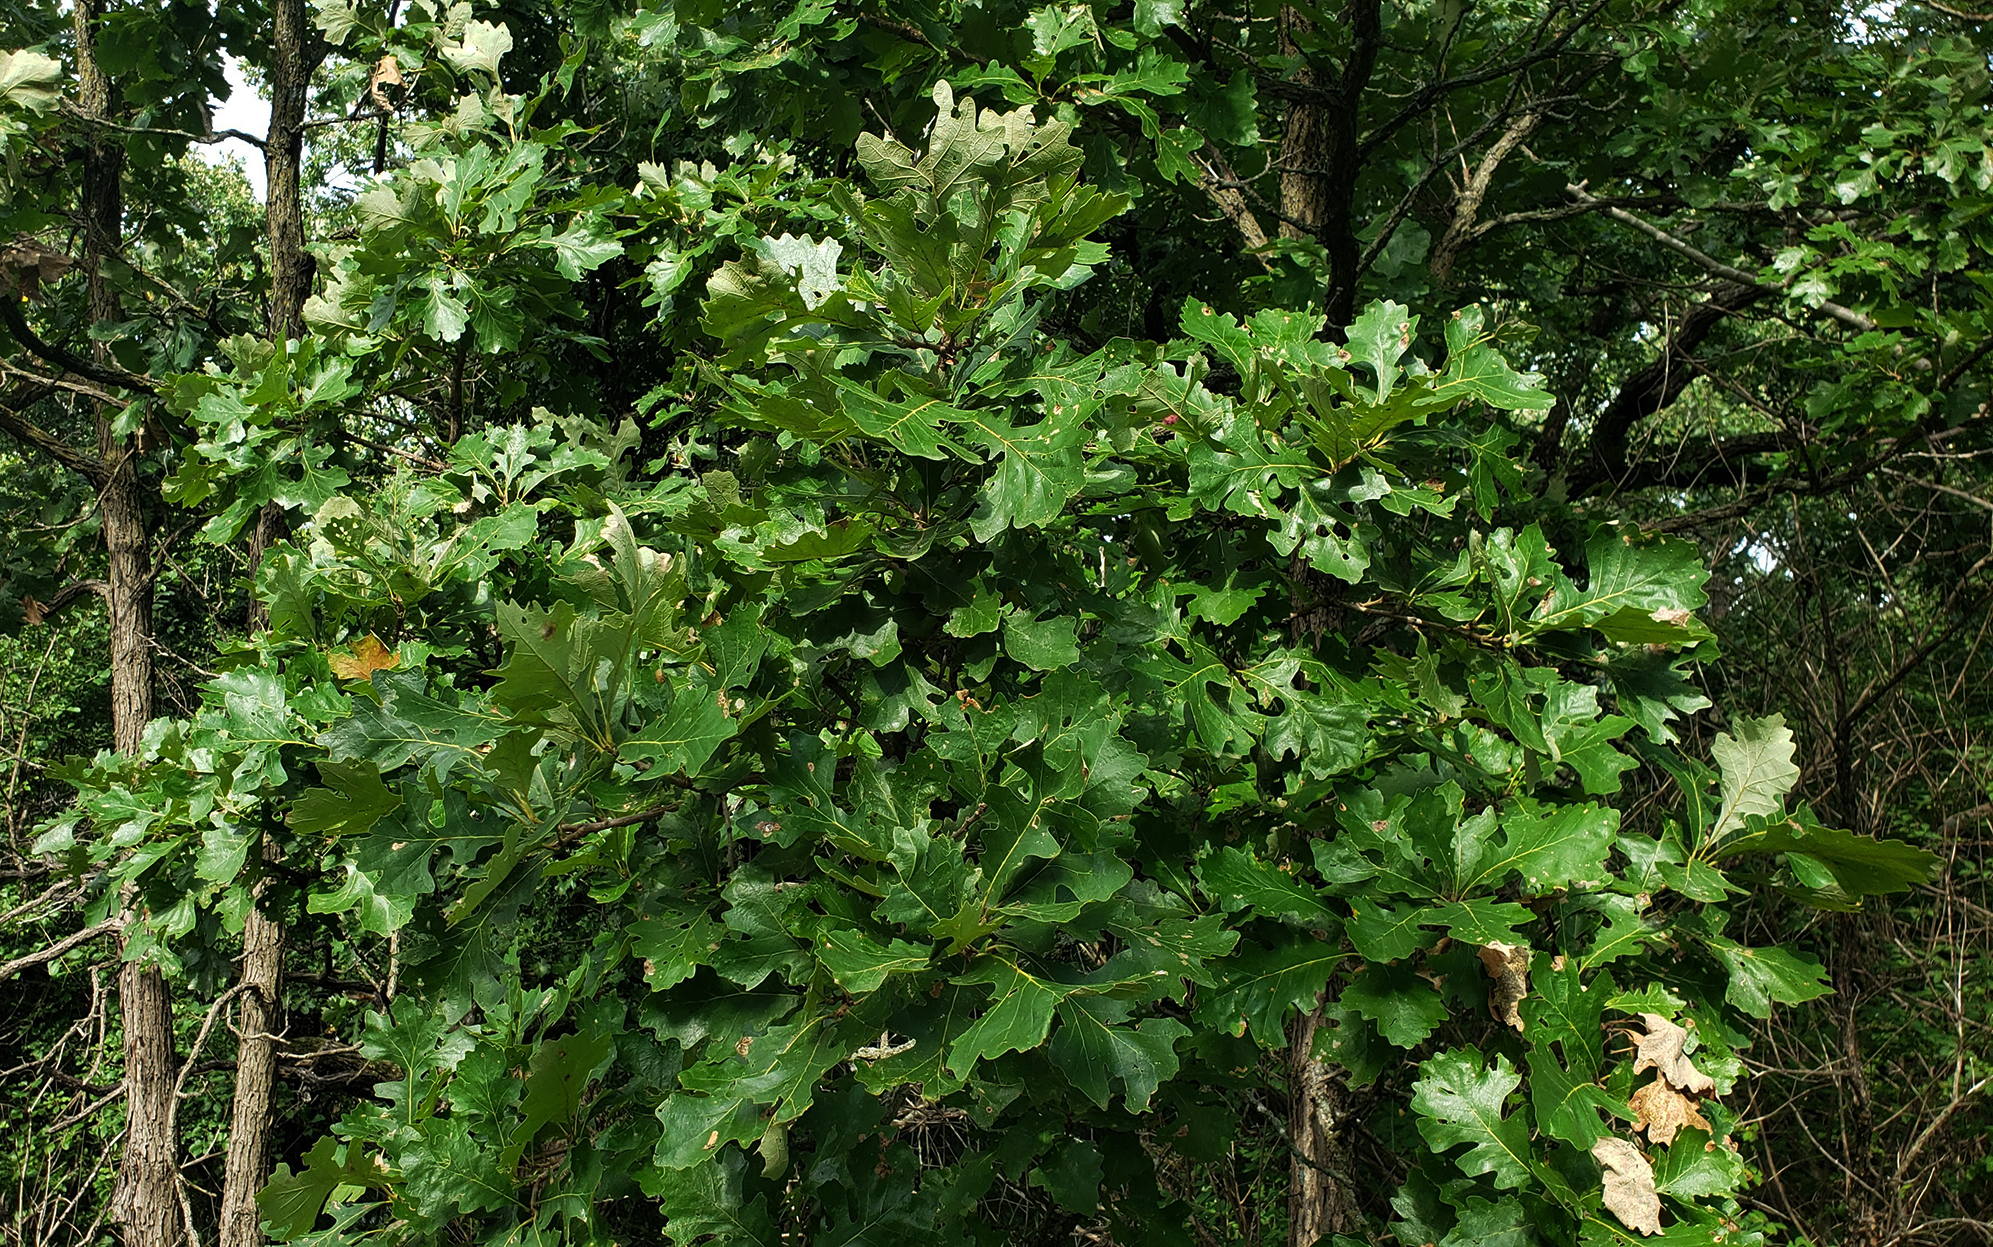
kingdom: Plantae
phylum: Tracheophyta
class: Magnoliopsida
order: Fagales
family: Fagaceae
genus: Quercus
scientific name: Quercus macrocarpa
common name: Bur oak
